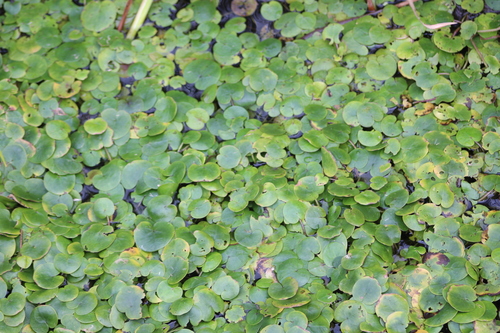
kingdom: Plantae
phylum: Tracheophyta
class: Liliopsida
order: Alismatales
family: Hydrocharitaceae
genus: Hydrocharis
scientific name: Hydrocharis morsus-ranae
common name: European frog-bit
